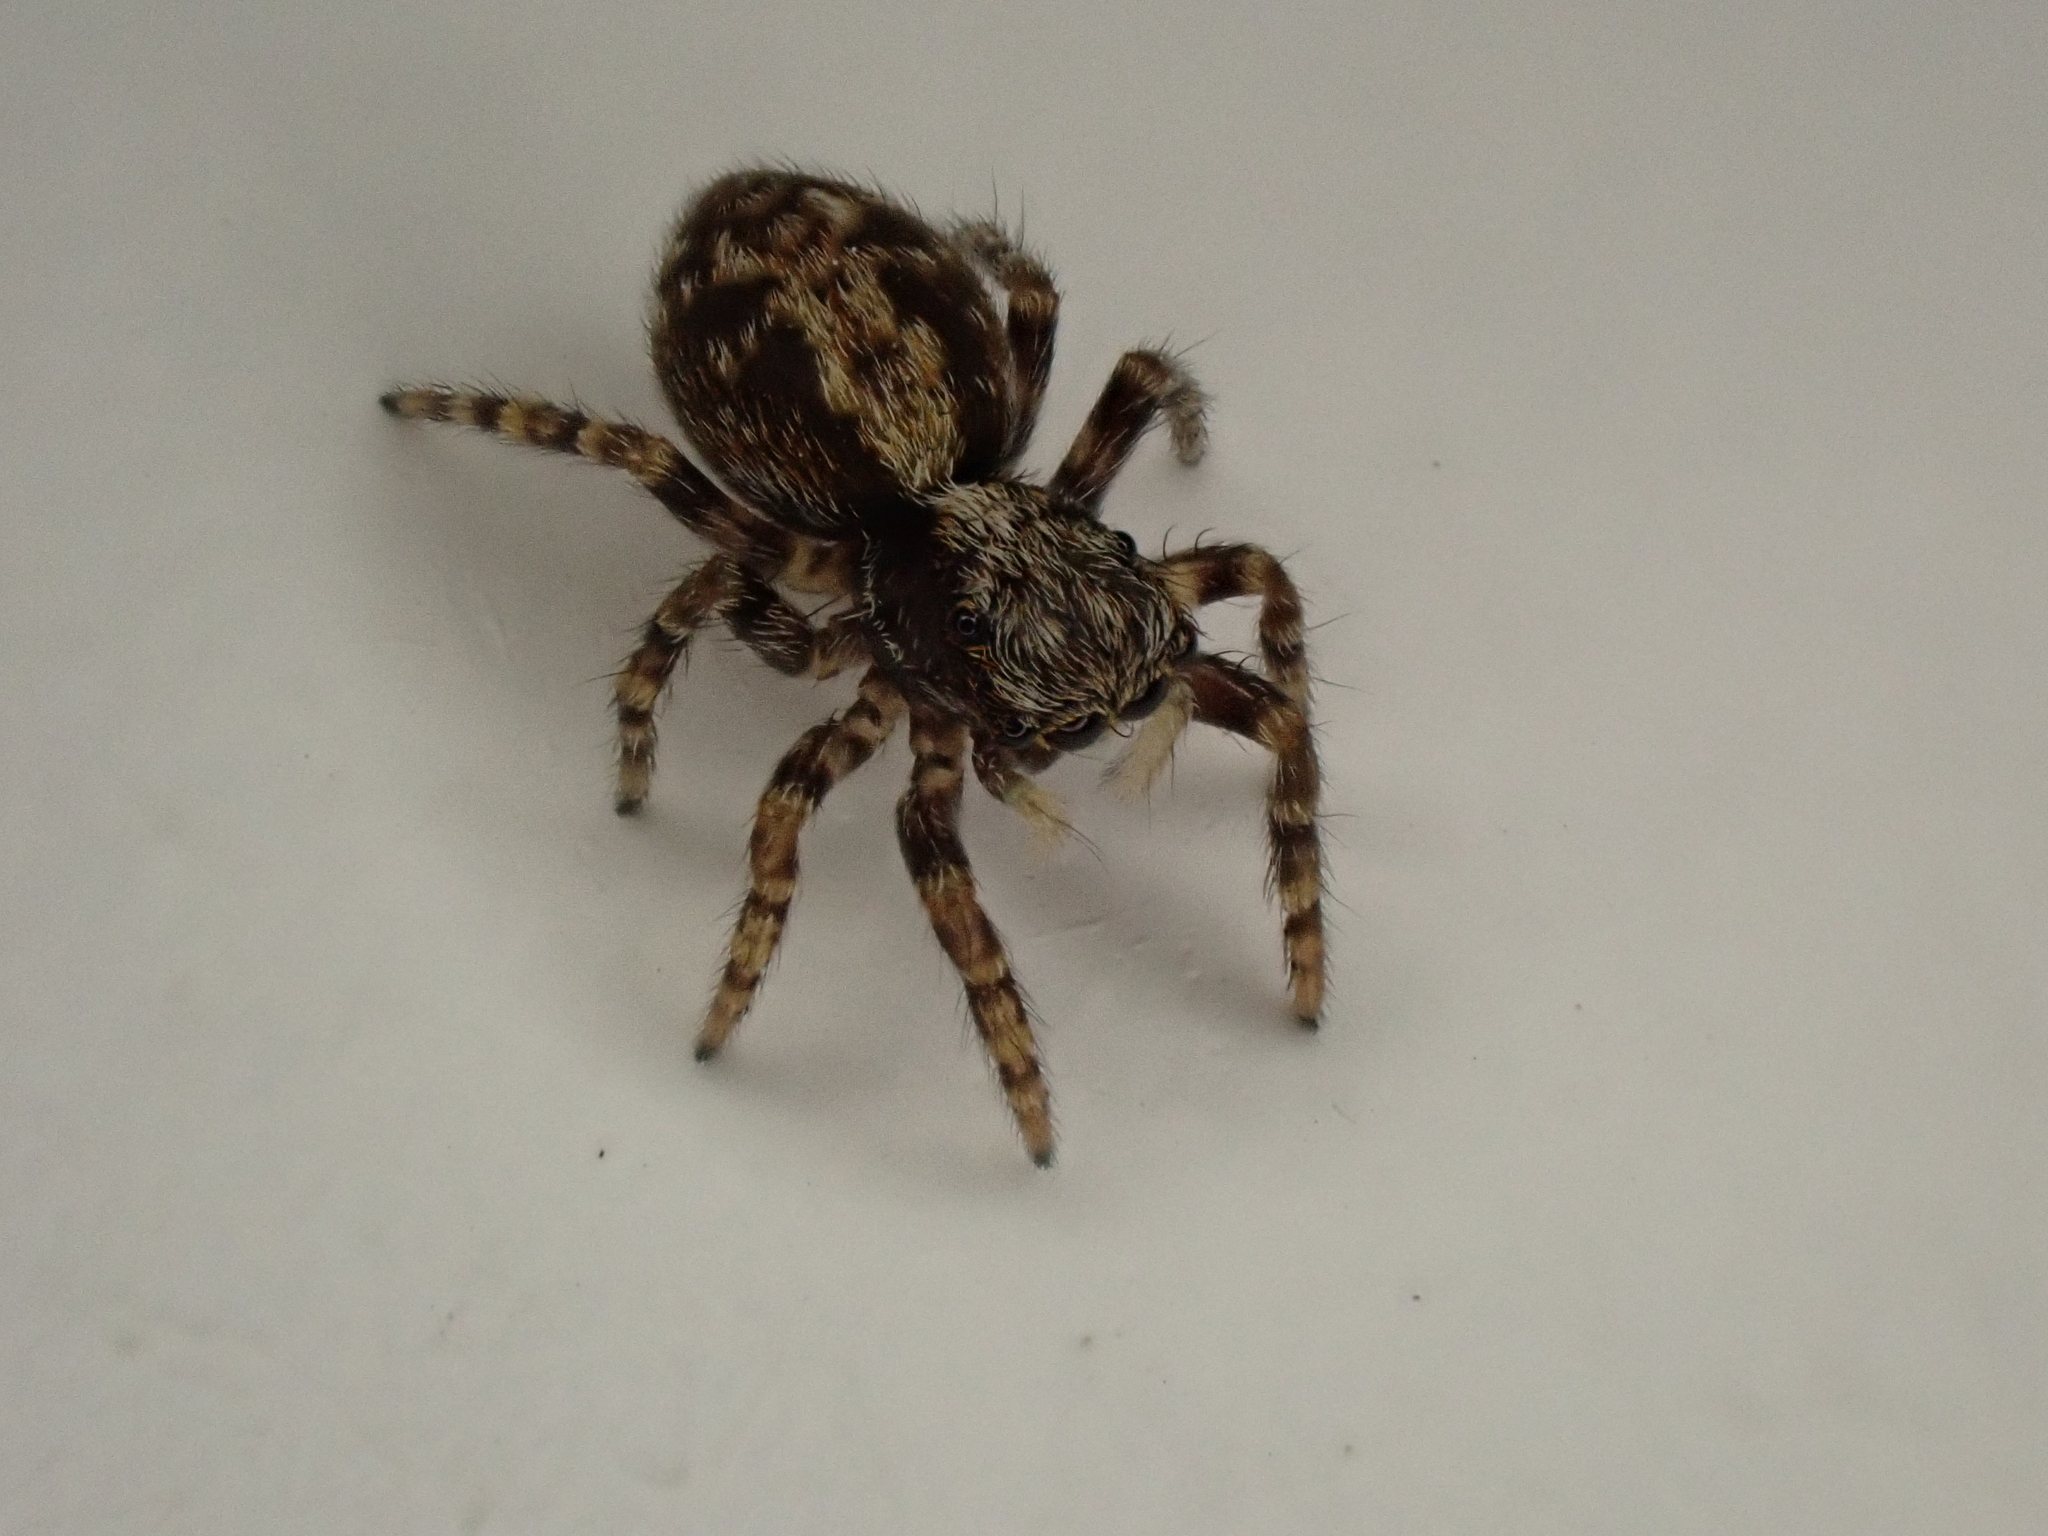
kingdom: Animalia
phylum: Arthropoda
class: Arachnida
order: Araneae
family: Salticidae
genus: Pseudeuophrys
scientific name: Pseudeuophrys lanigera
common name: Jumping spider
